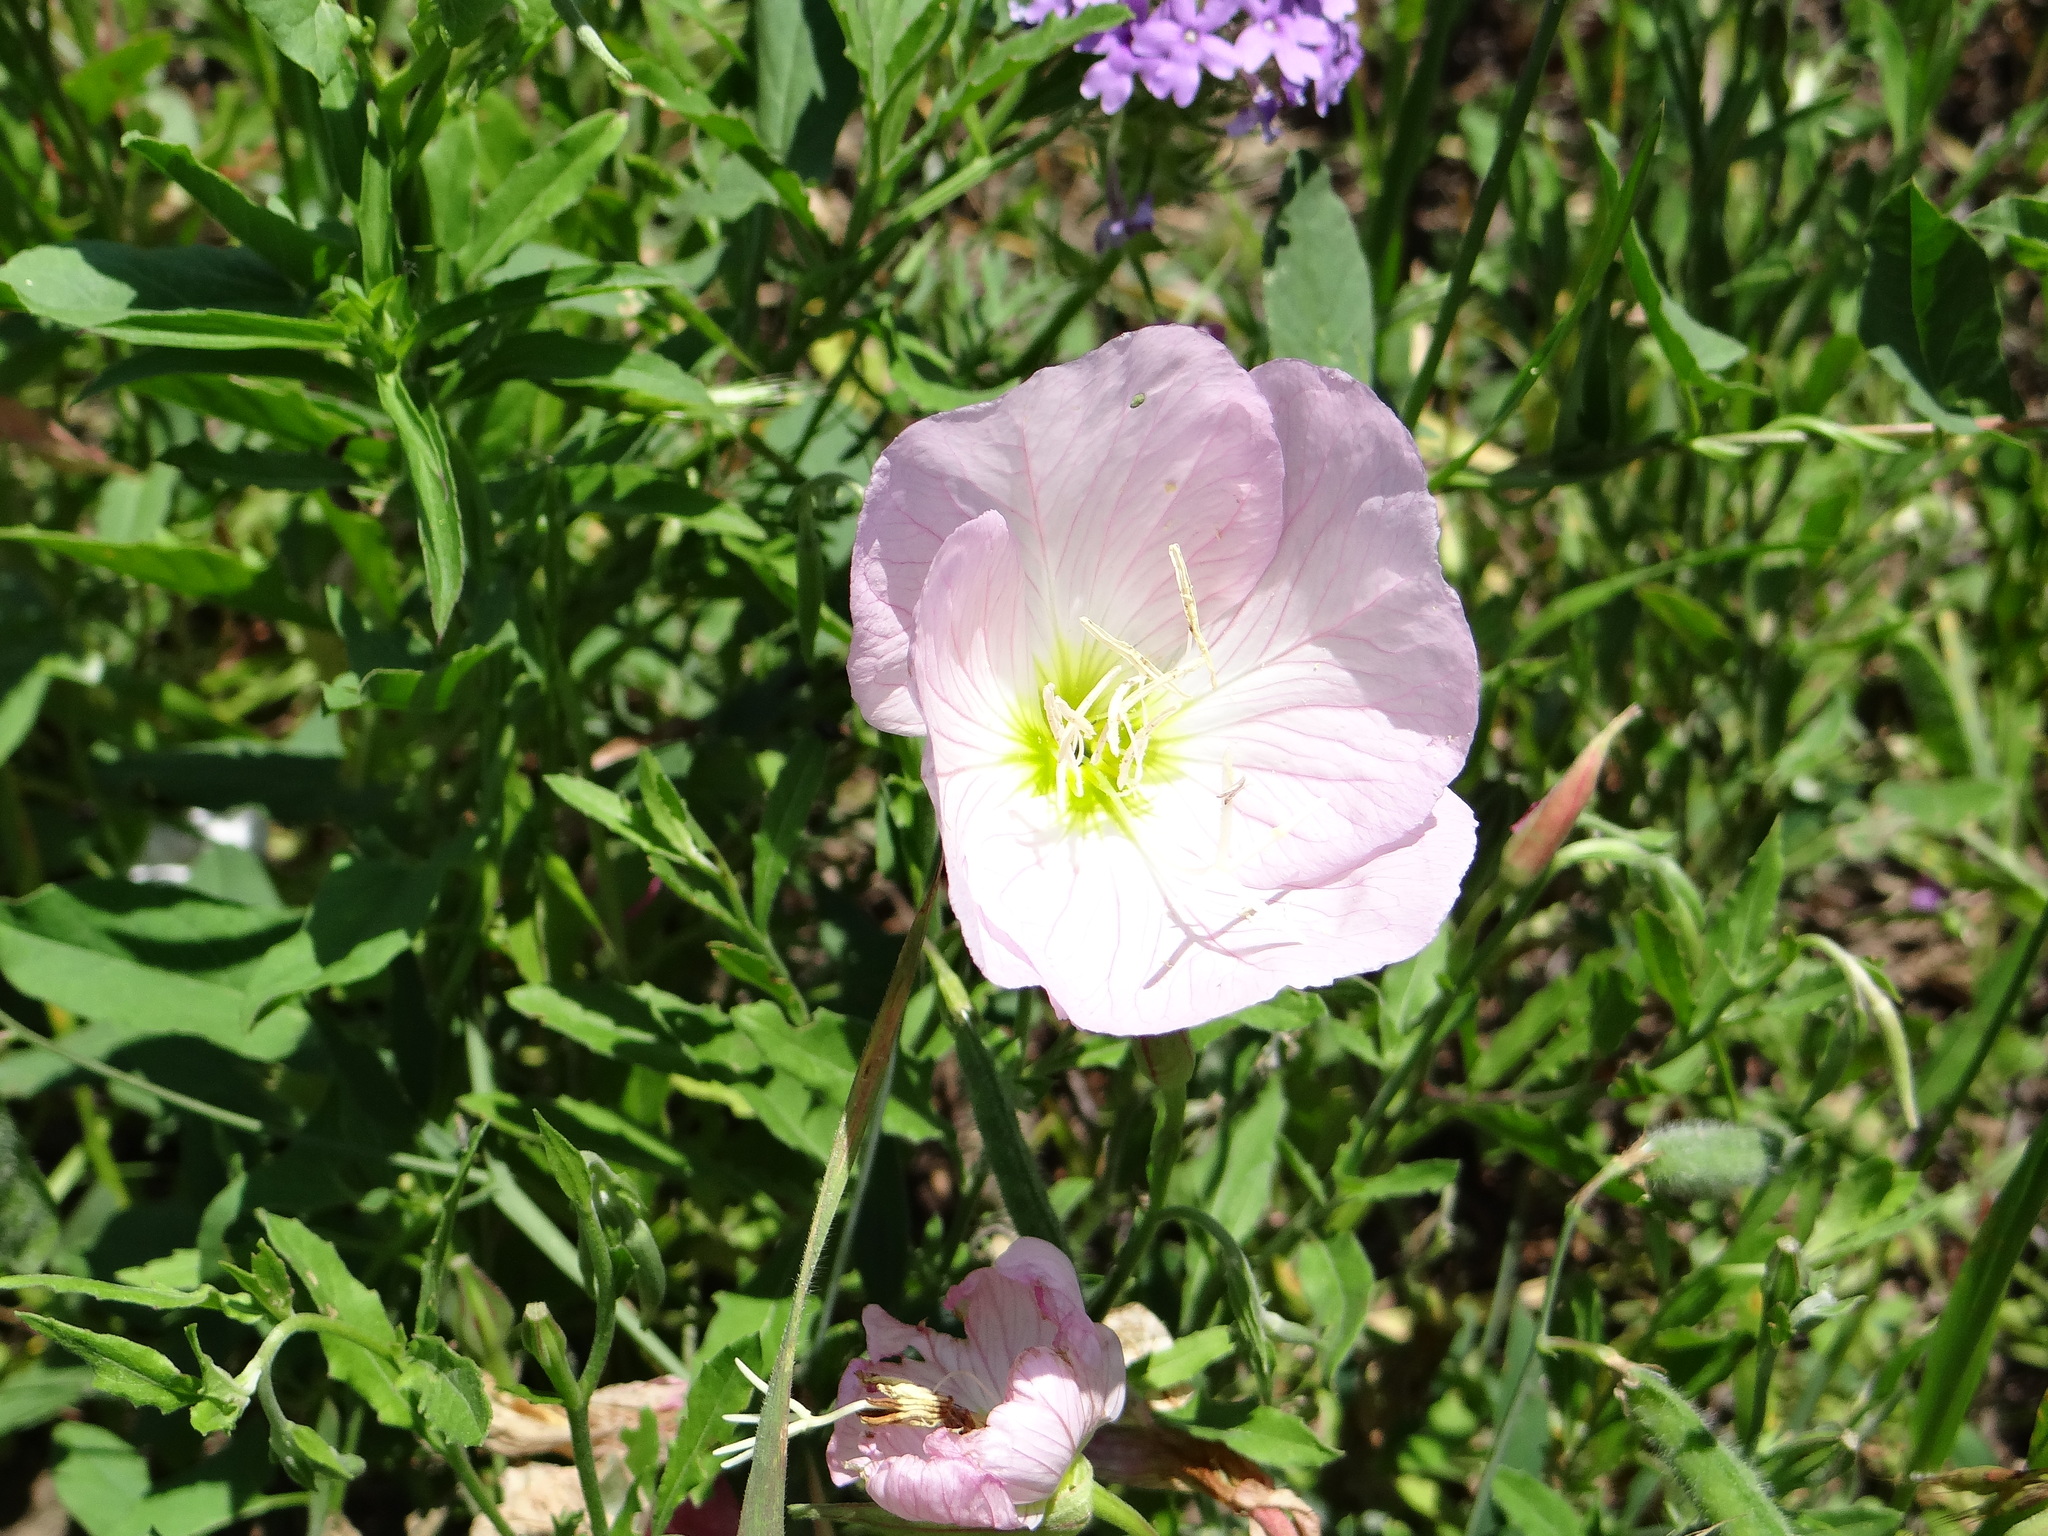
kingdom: Plantae
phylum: Tracheophyta
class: Magnoliopsida
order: Myrtales
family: Onagraceae
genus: Oenothera
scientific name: Oenothera speciosa
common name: White evening-primrose
